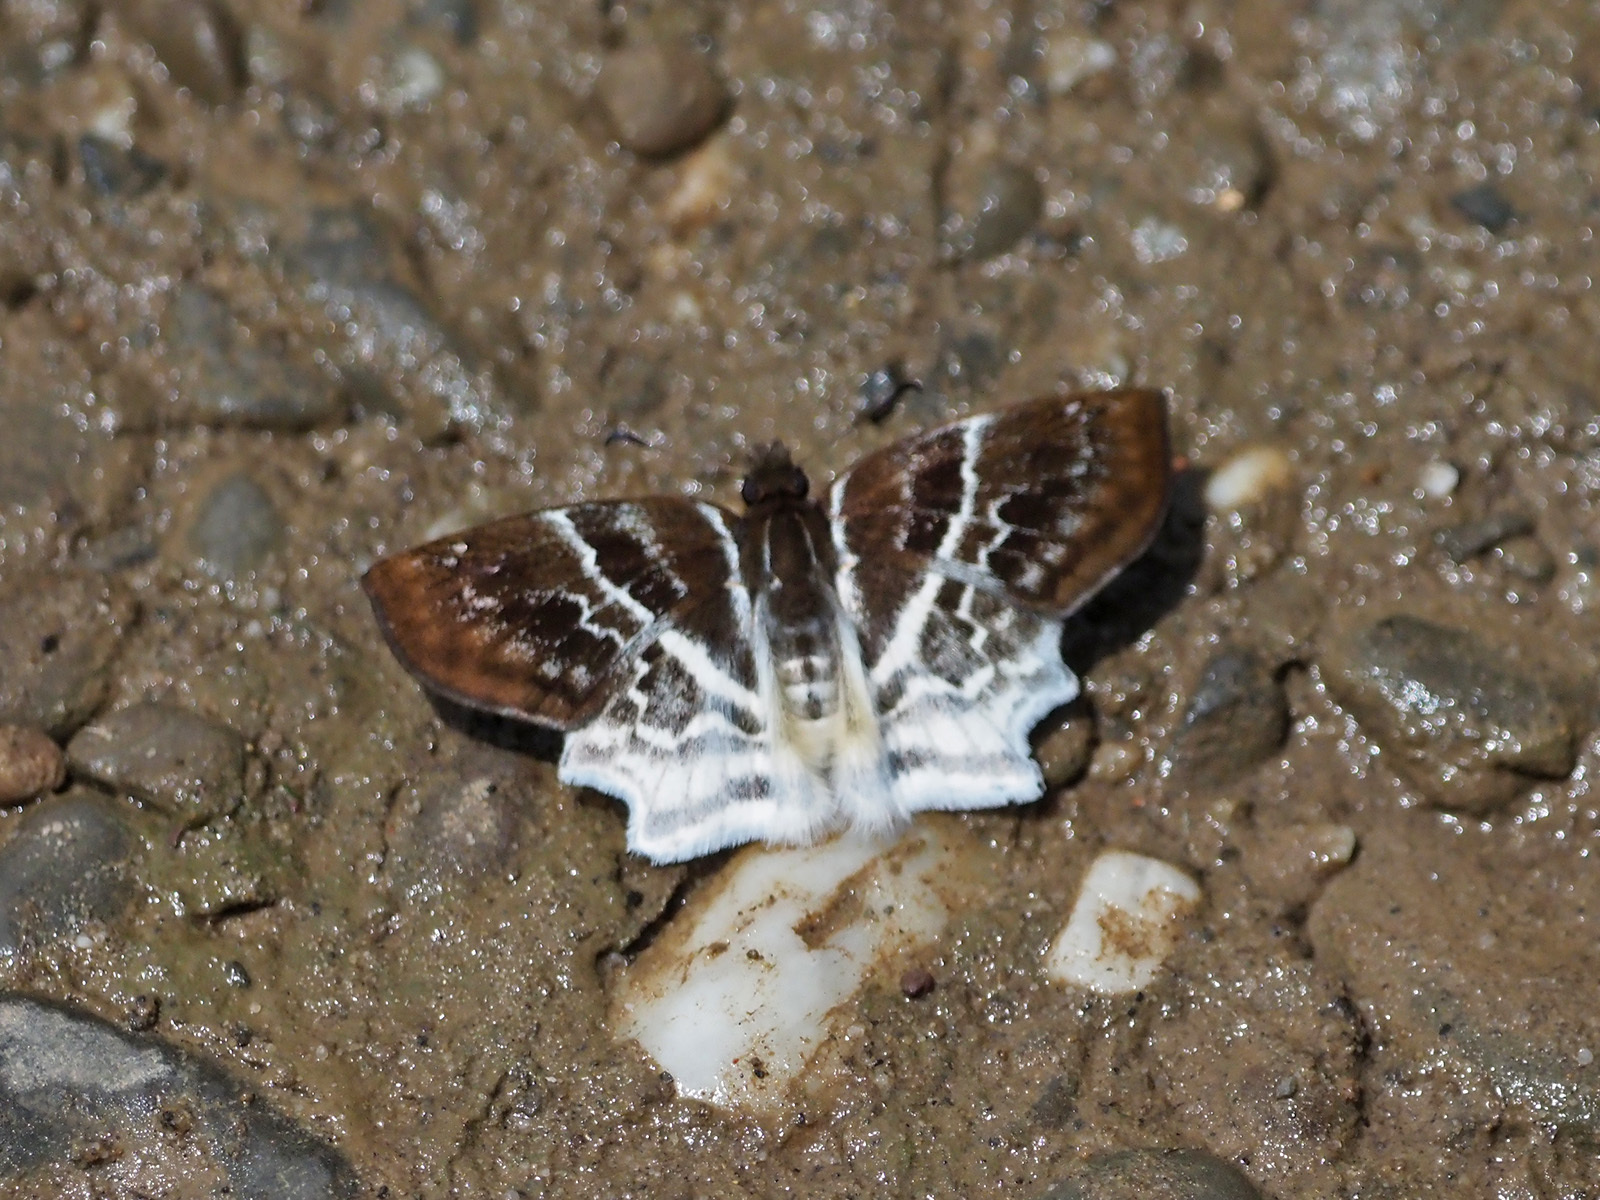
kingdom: Animalia
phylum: Arthropoda
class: Insecta
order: Lepidoptera
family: Hesperiidae
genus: Odontoptilum
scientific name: Odontoptilum pygela
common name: Banded angle
